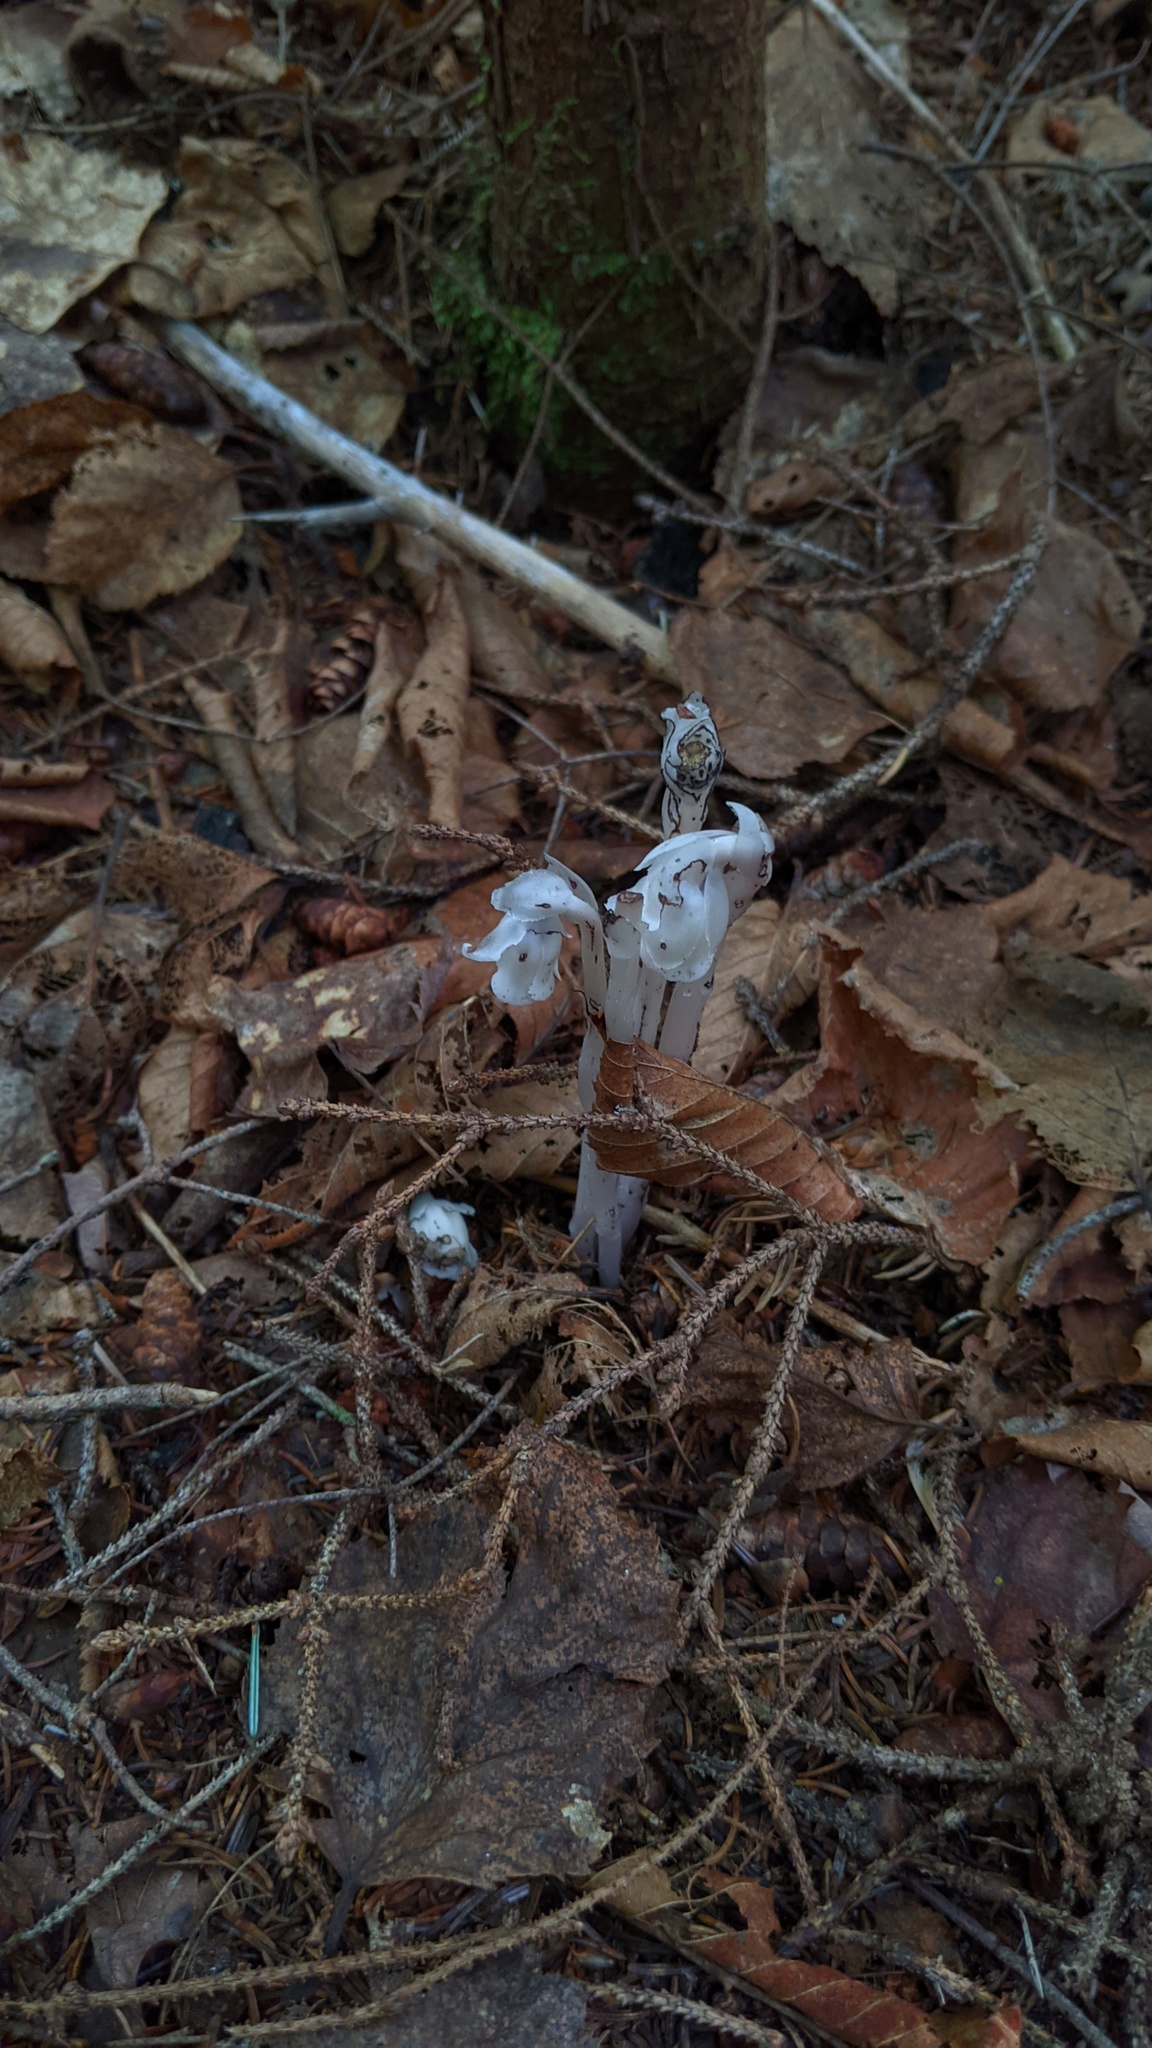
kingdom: Plantae
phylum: Tracheophyta
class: Magnoliopsida
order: Ericales
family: Ericaceae
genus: Monotropa
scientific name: Monotropa uniflora
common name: Convulsion root
